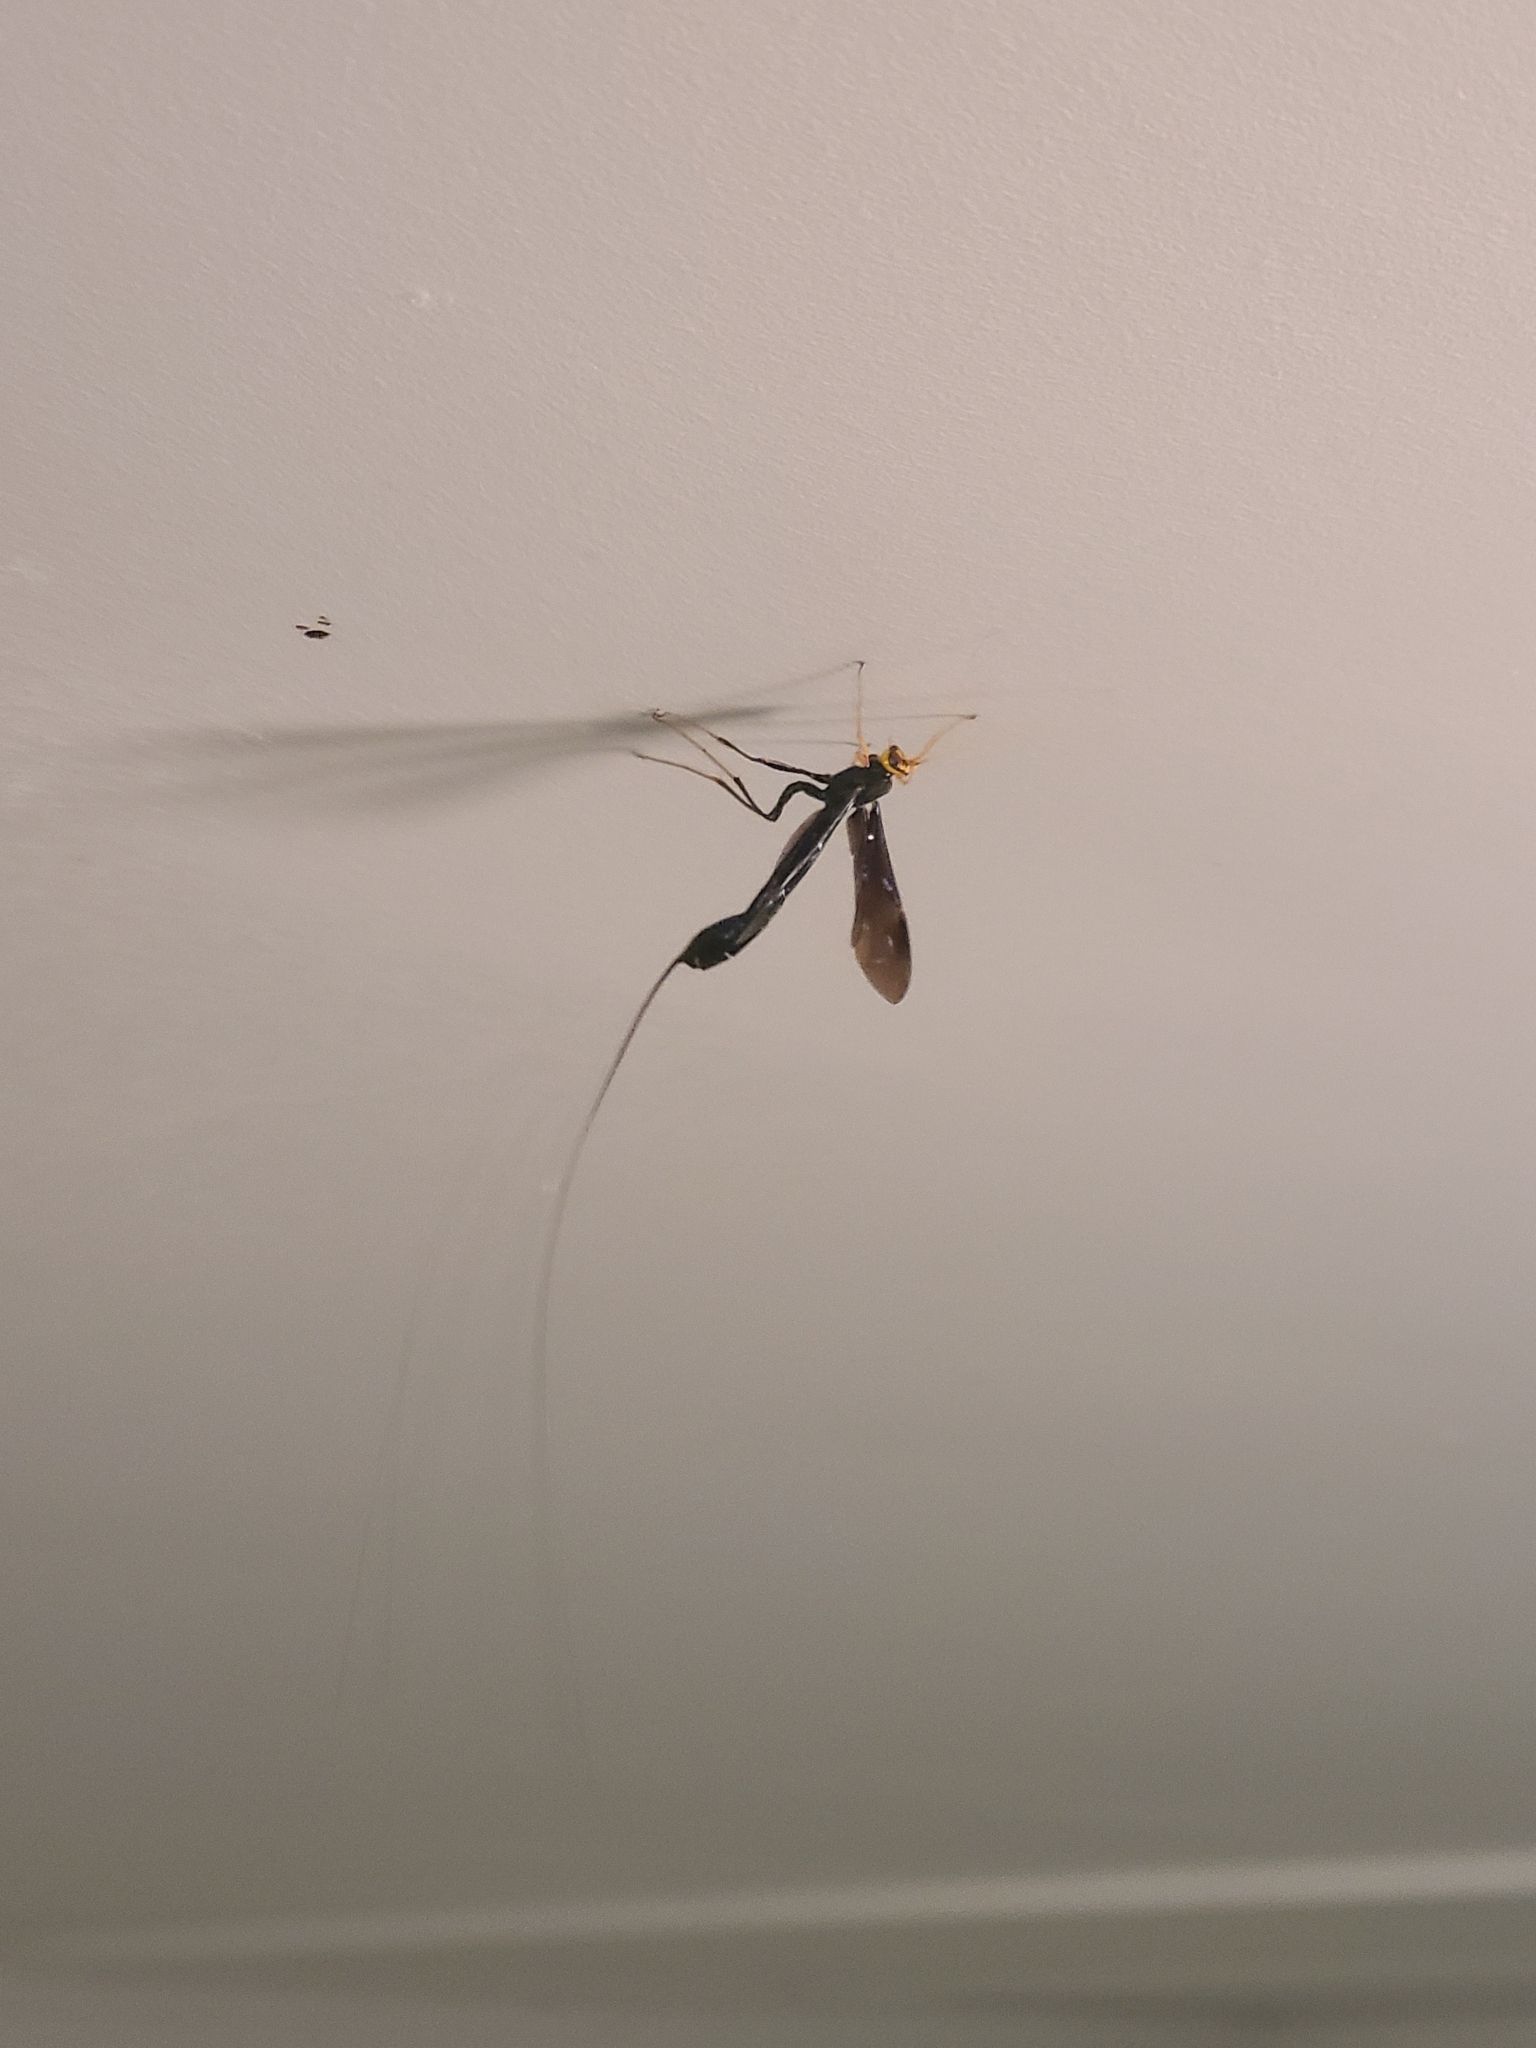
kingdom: Animalia
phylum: Arthropoda
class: Insecta
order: Hymenoptera
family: Ichneumonidae
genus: Megarhyssa
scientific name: Megarhyssa atrata
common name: Black giant ichneumonid wasp
